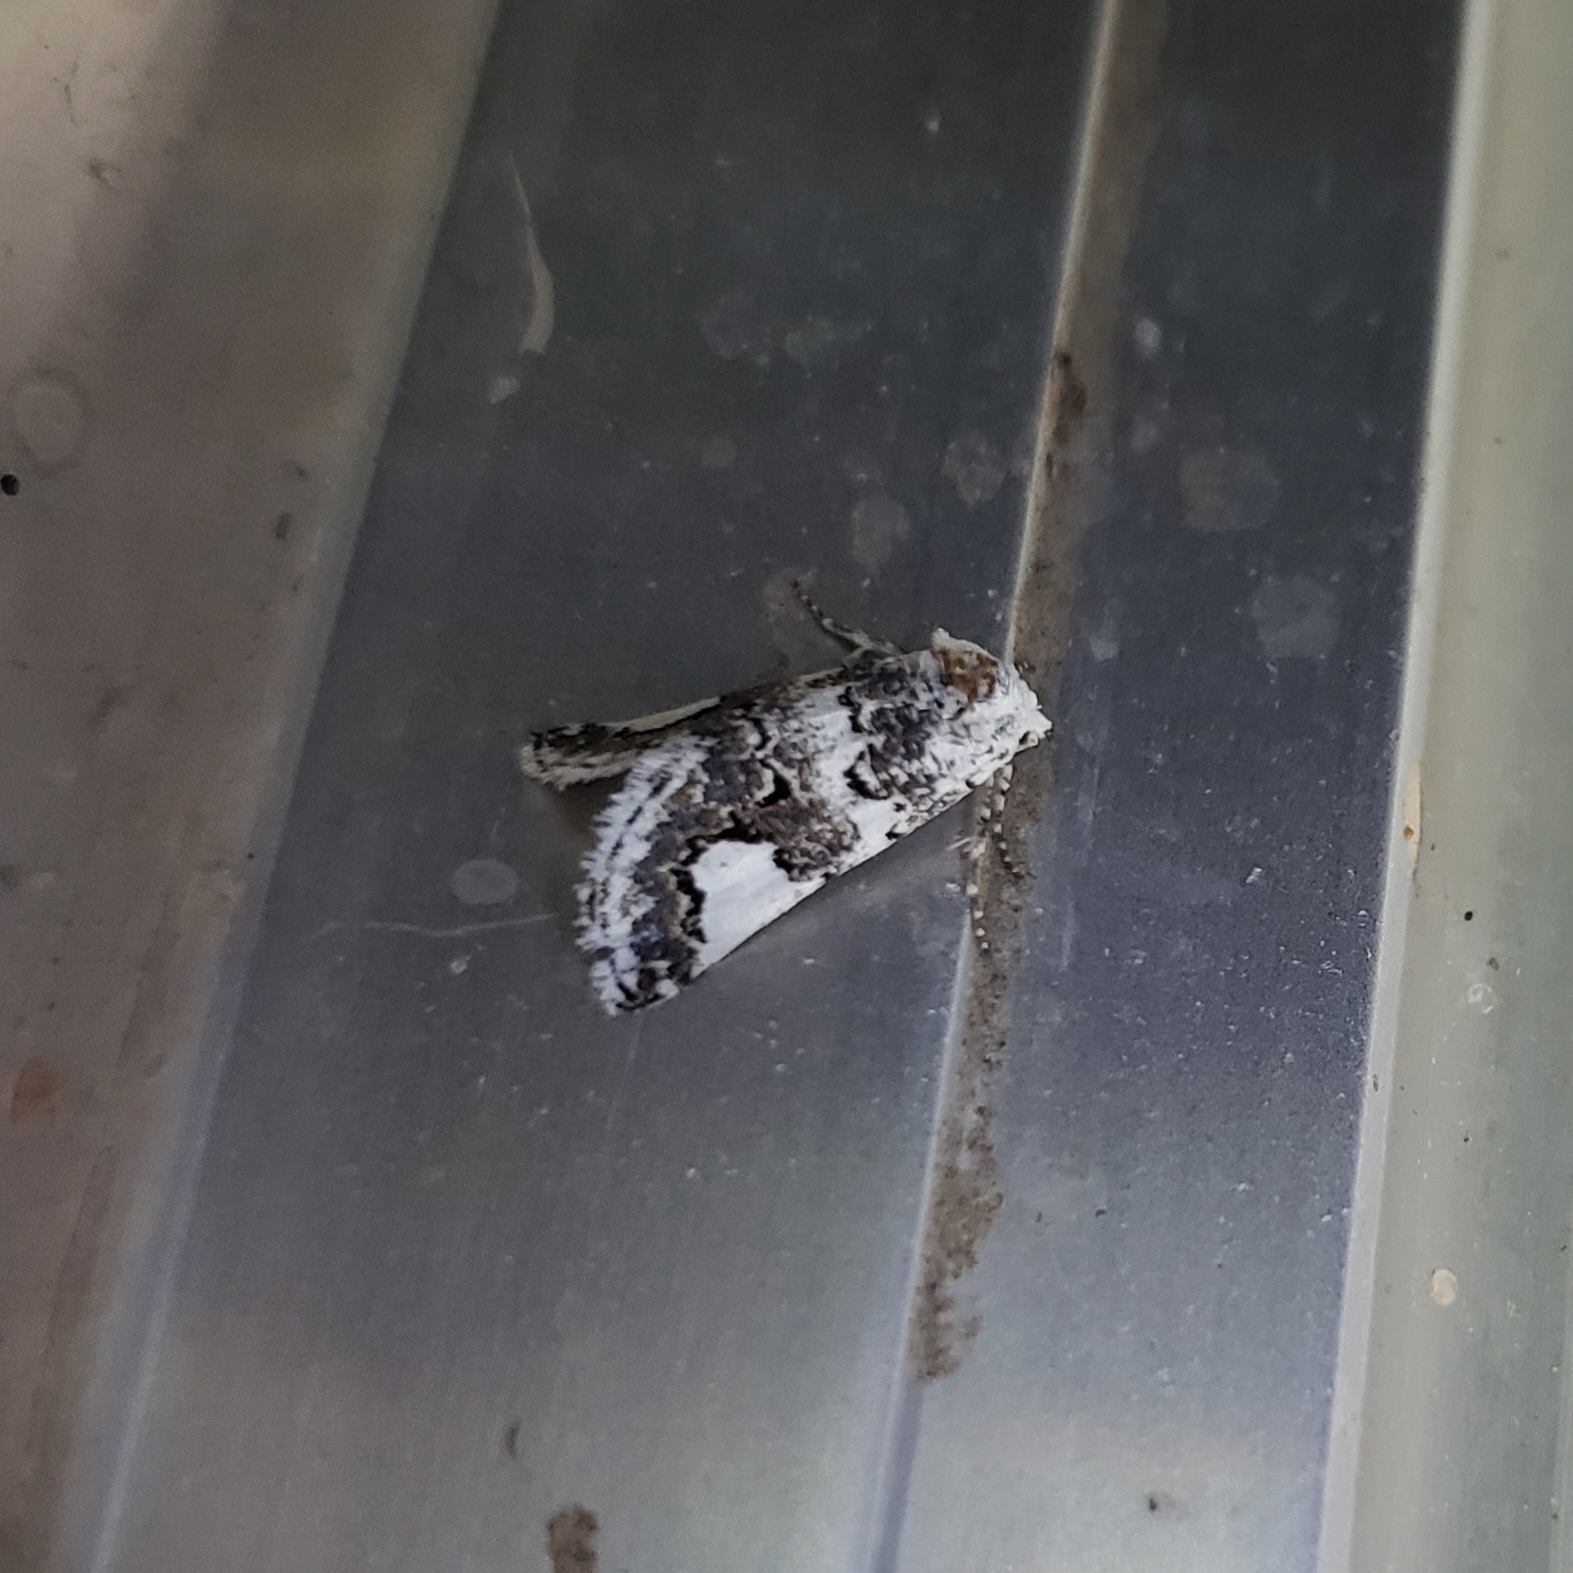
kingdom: Animalia
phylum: Arthropoda
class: Insecta
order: Lepidoptera
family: Noctuidae
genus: Tristyla
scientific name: Tristyla alboplagiata
